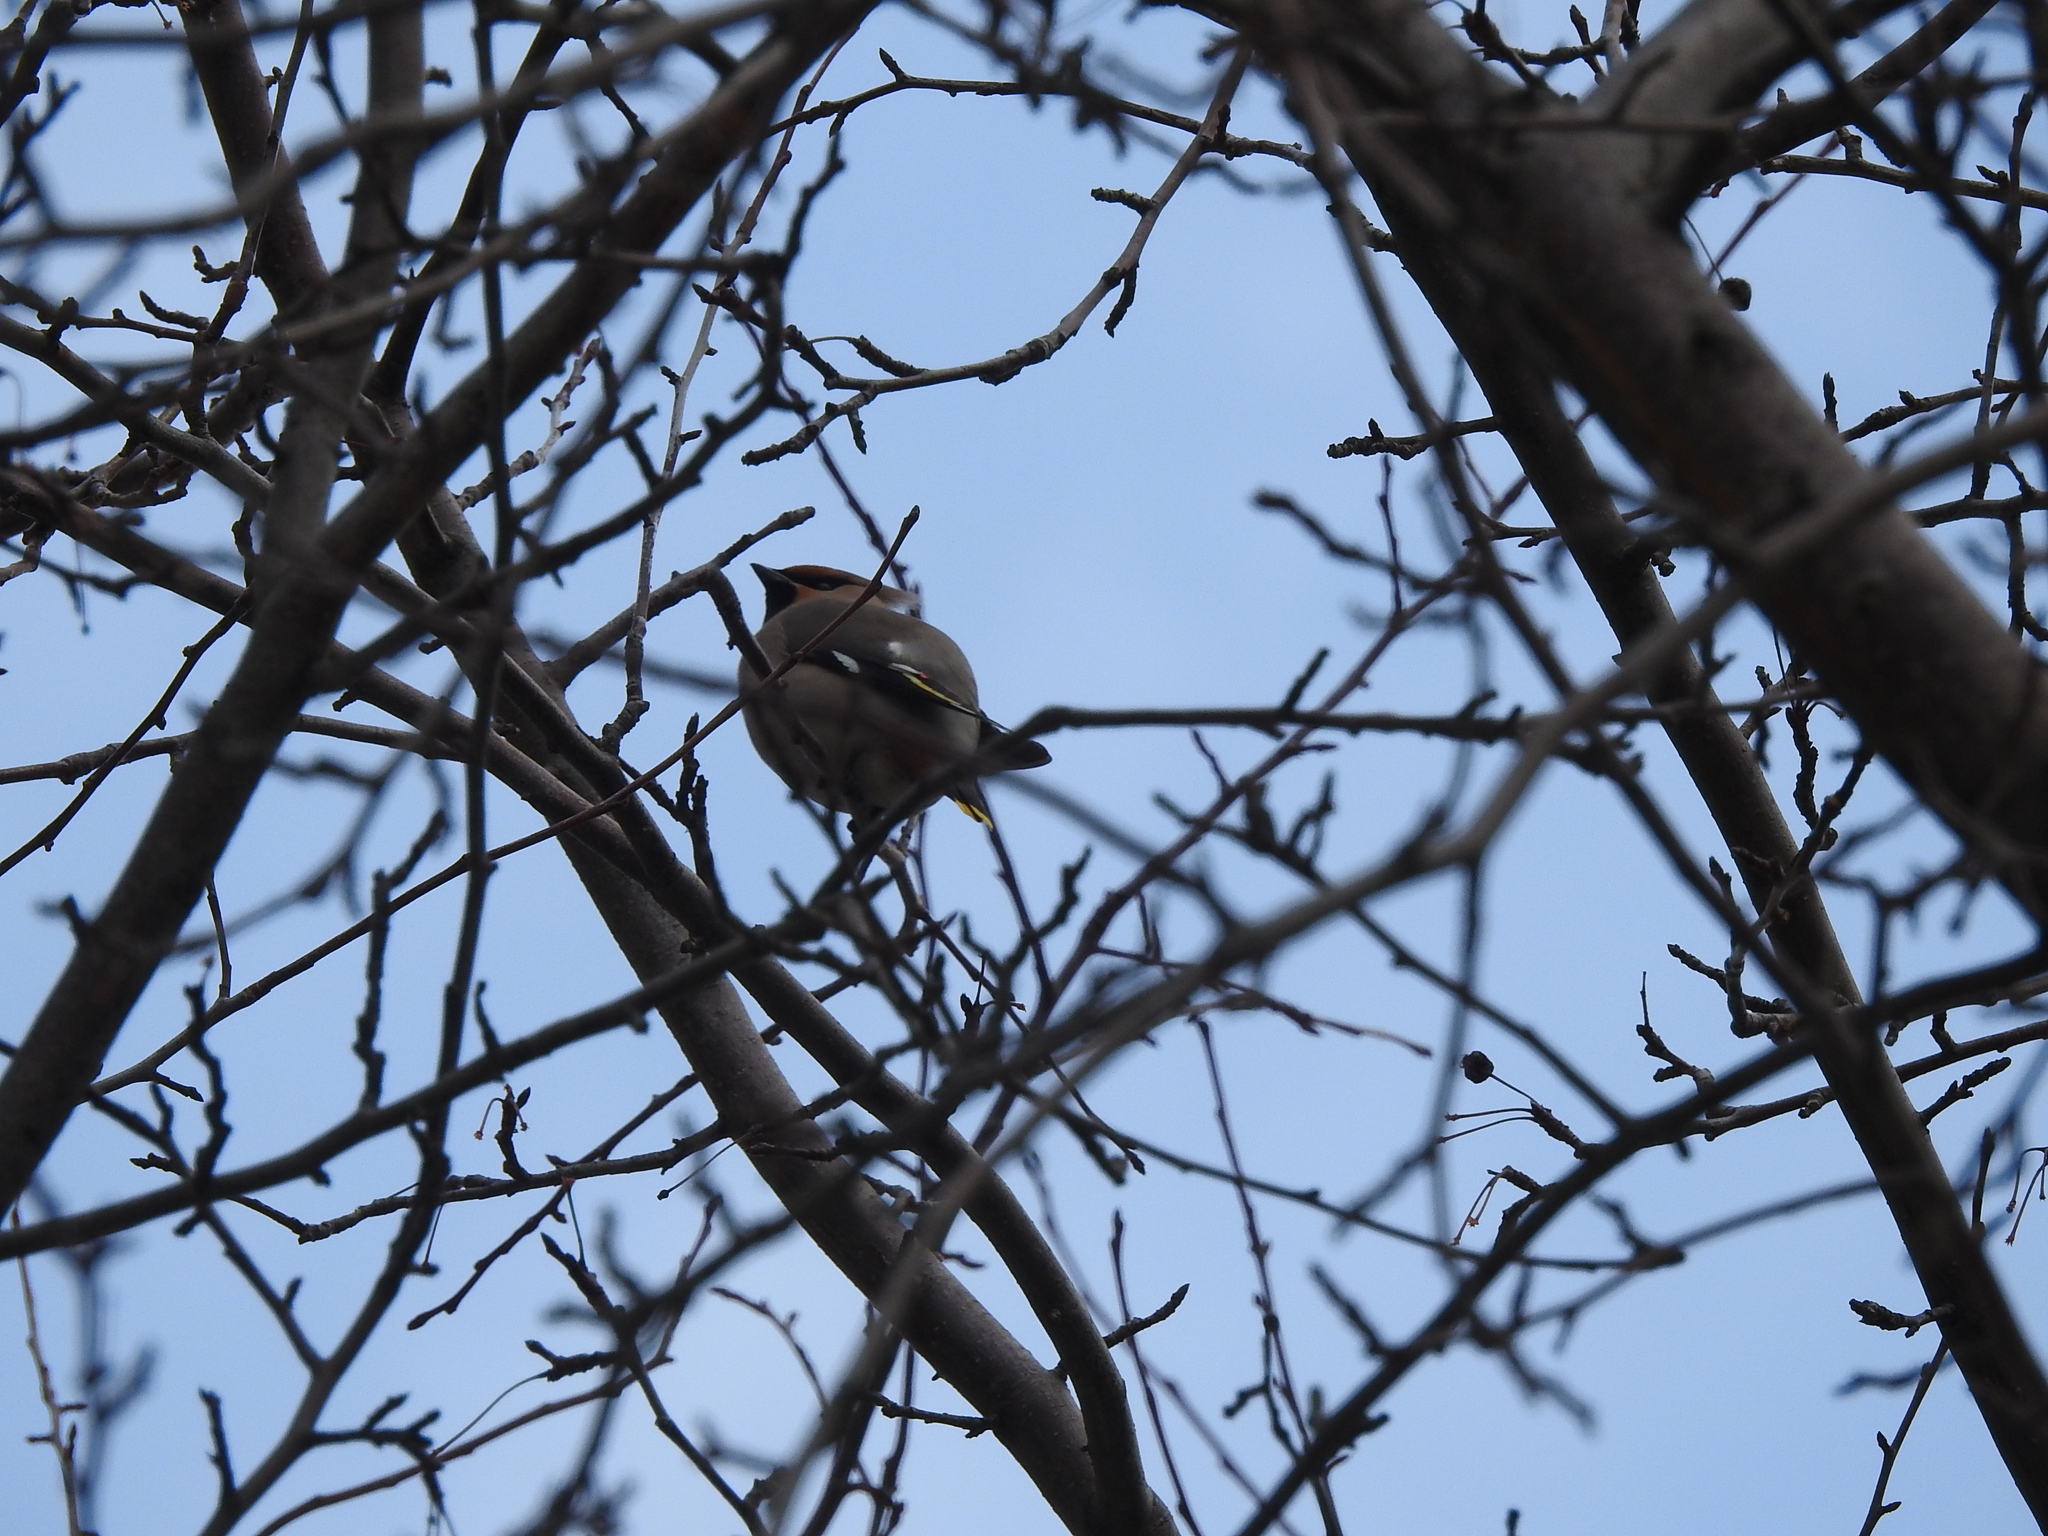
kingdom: Animalia
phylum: Chordata
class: Aves
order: Passeriformes
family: Bombycillidae
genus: Bombycilla
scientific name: Bombycilla garrulus
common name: Bohemian waxwing
